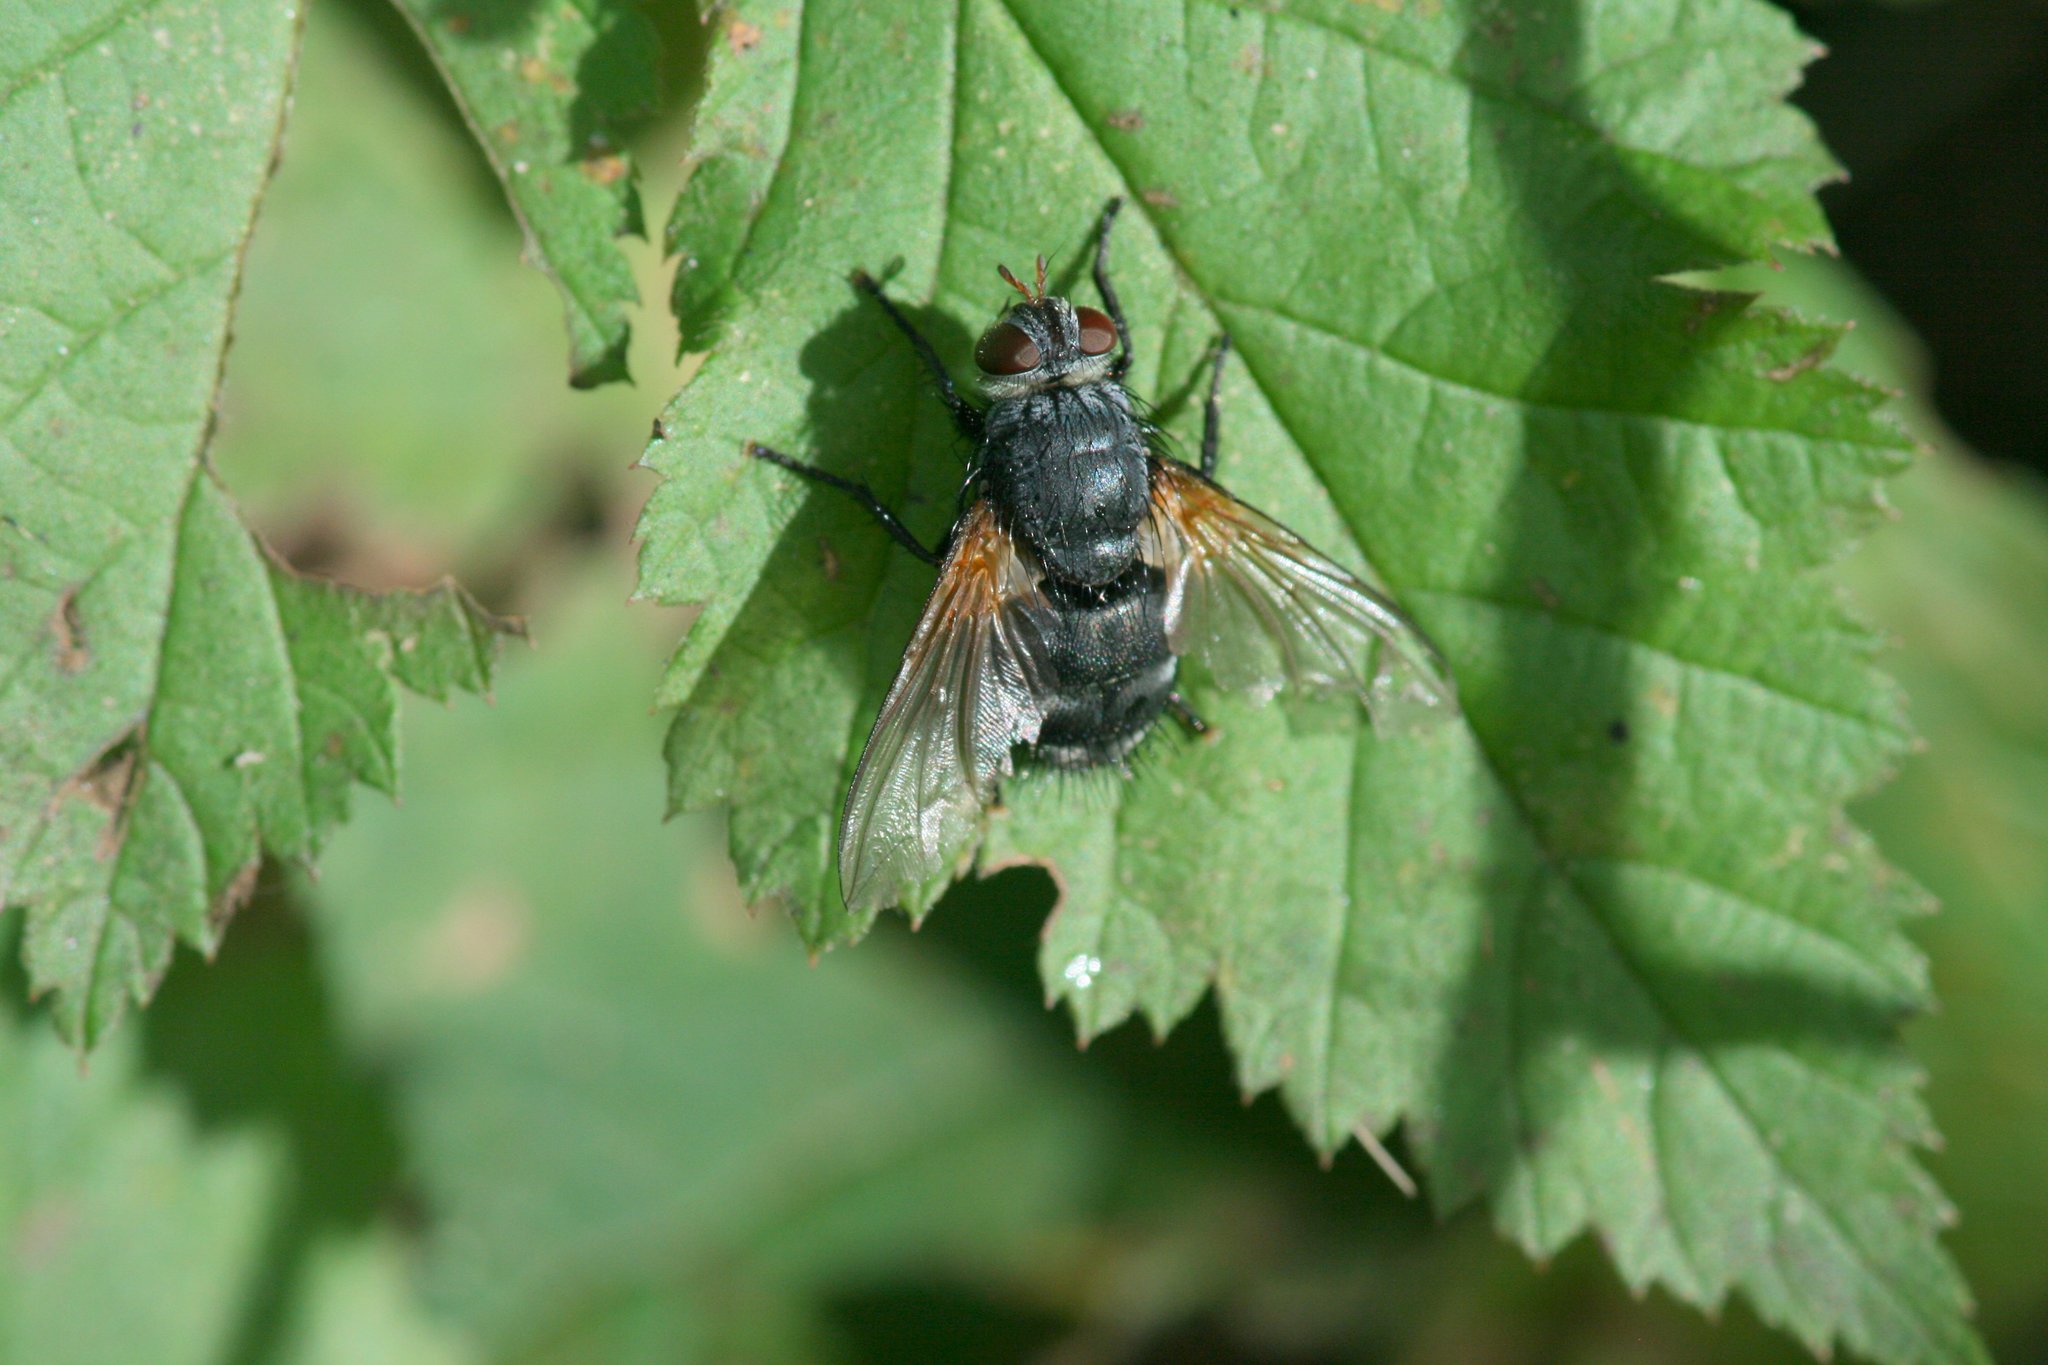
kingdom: Animalia
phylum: Arthropoda
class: Insecta
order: Diptera
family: Tachinidae
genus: Nemoraea
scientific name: Nemoraea pellucida
